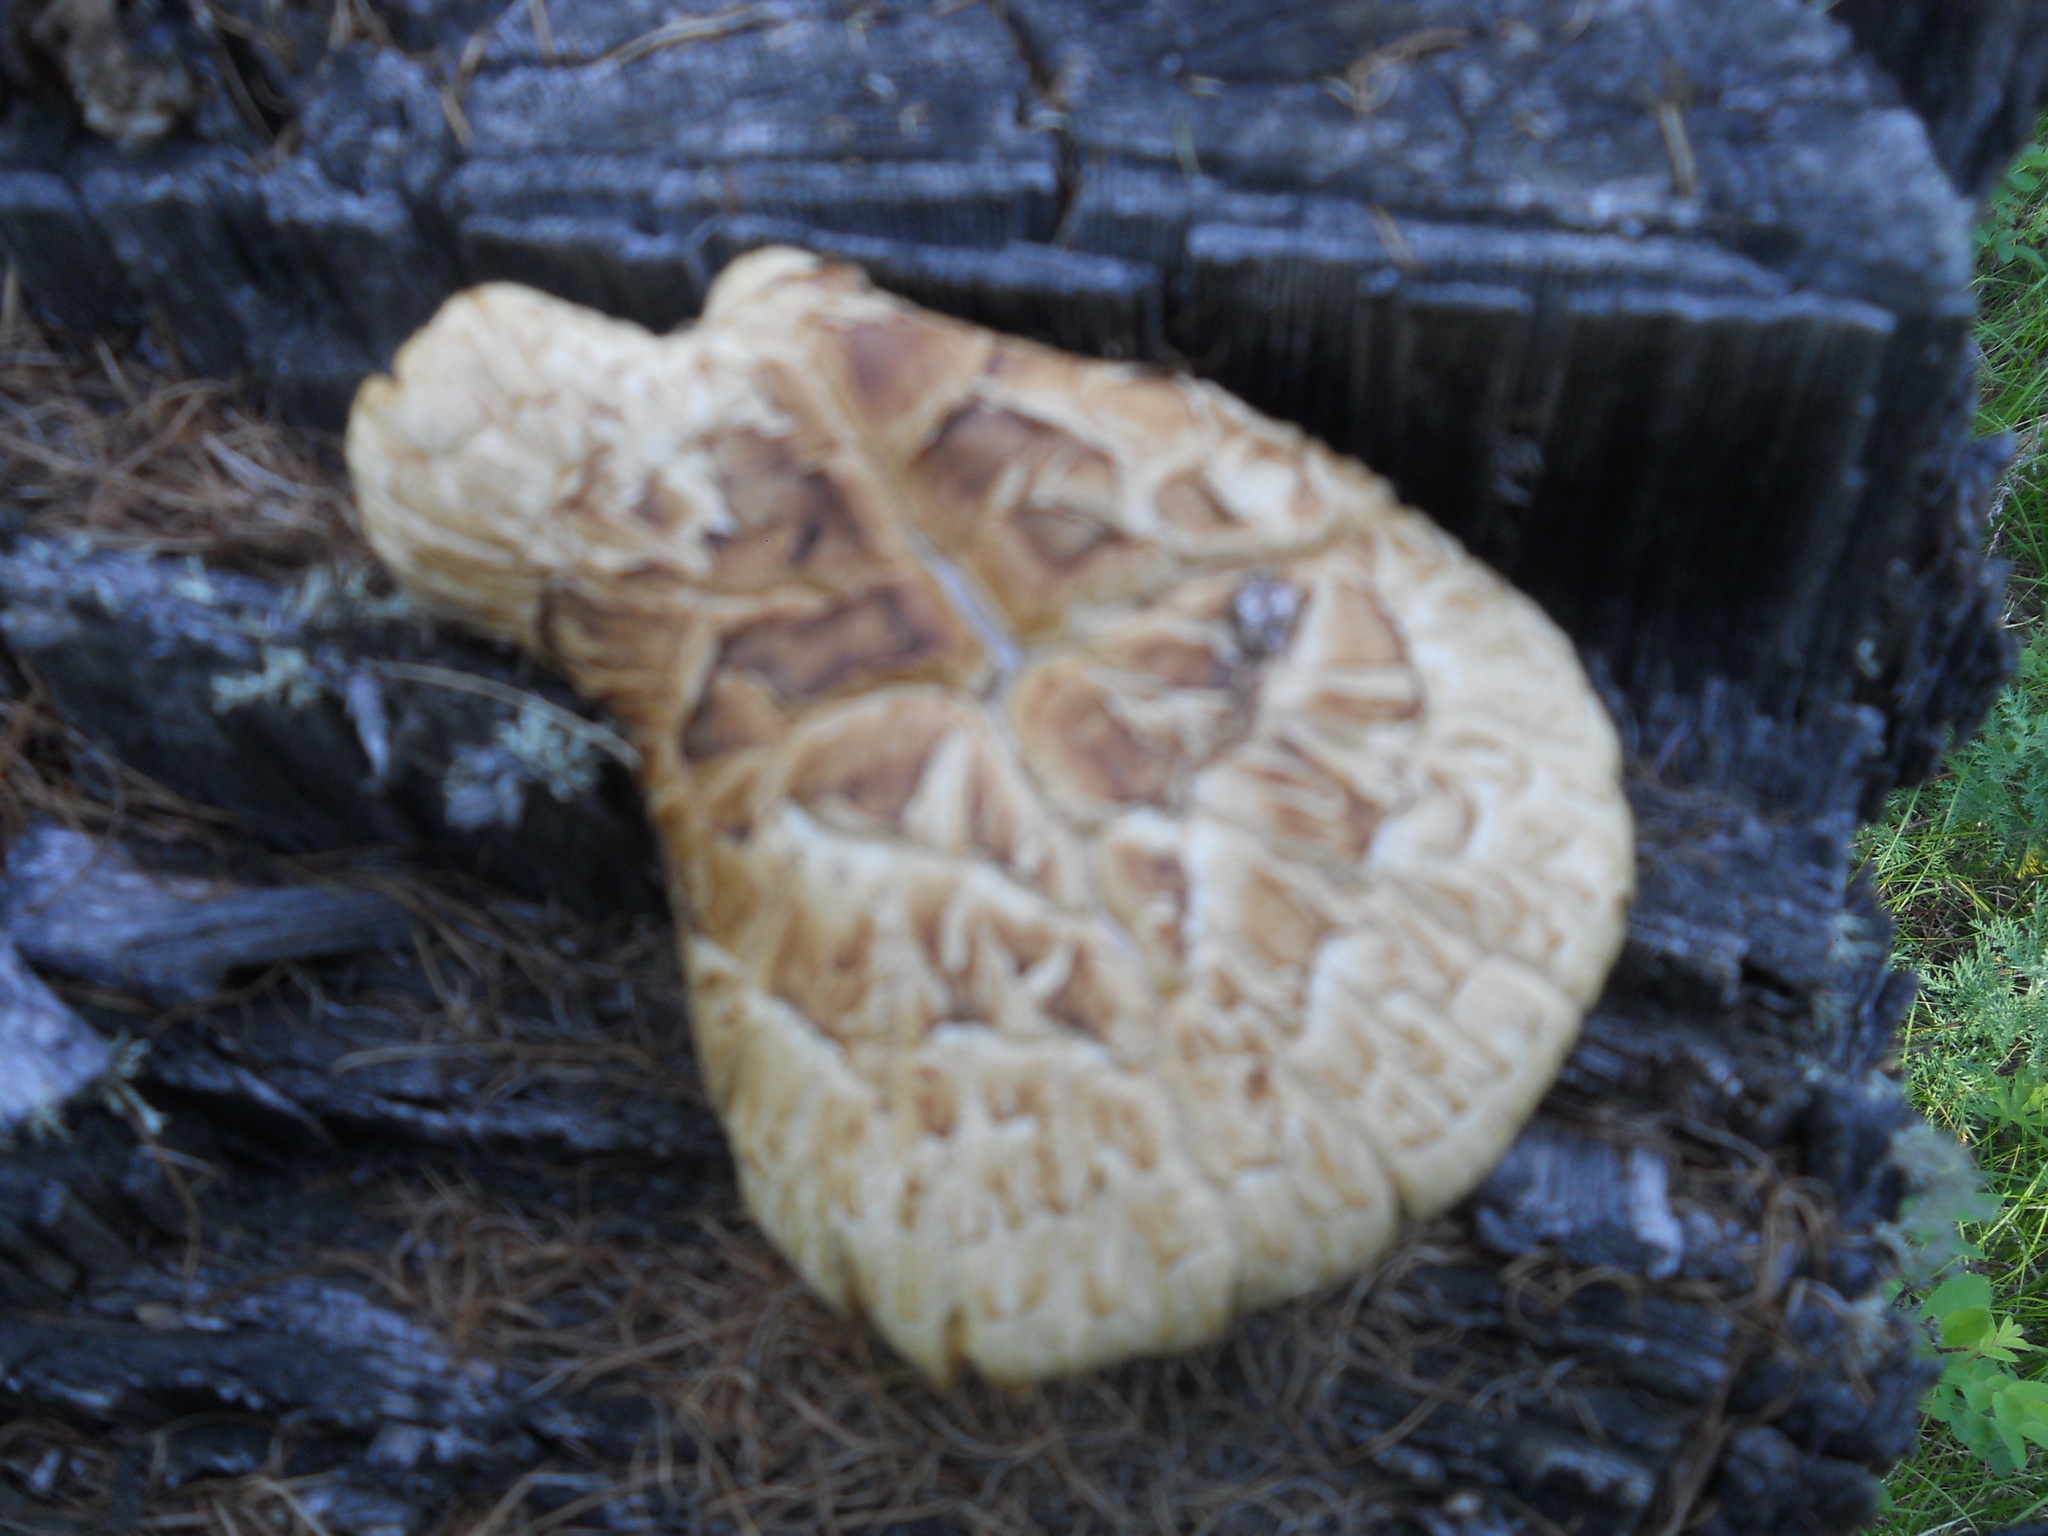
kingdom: Fungi
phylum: Basidiomycota
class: Agaricomycetes
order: Gloeophyllales
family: Gloeophyllaceae
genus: Neolentinus
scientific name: Neolentinus lepideus
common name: Scaly sawgill
